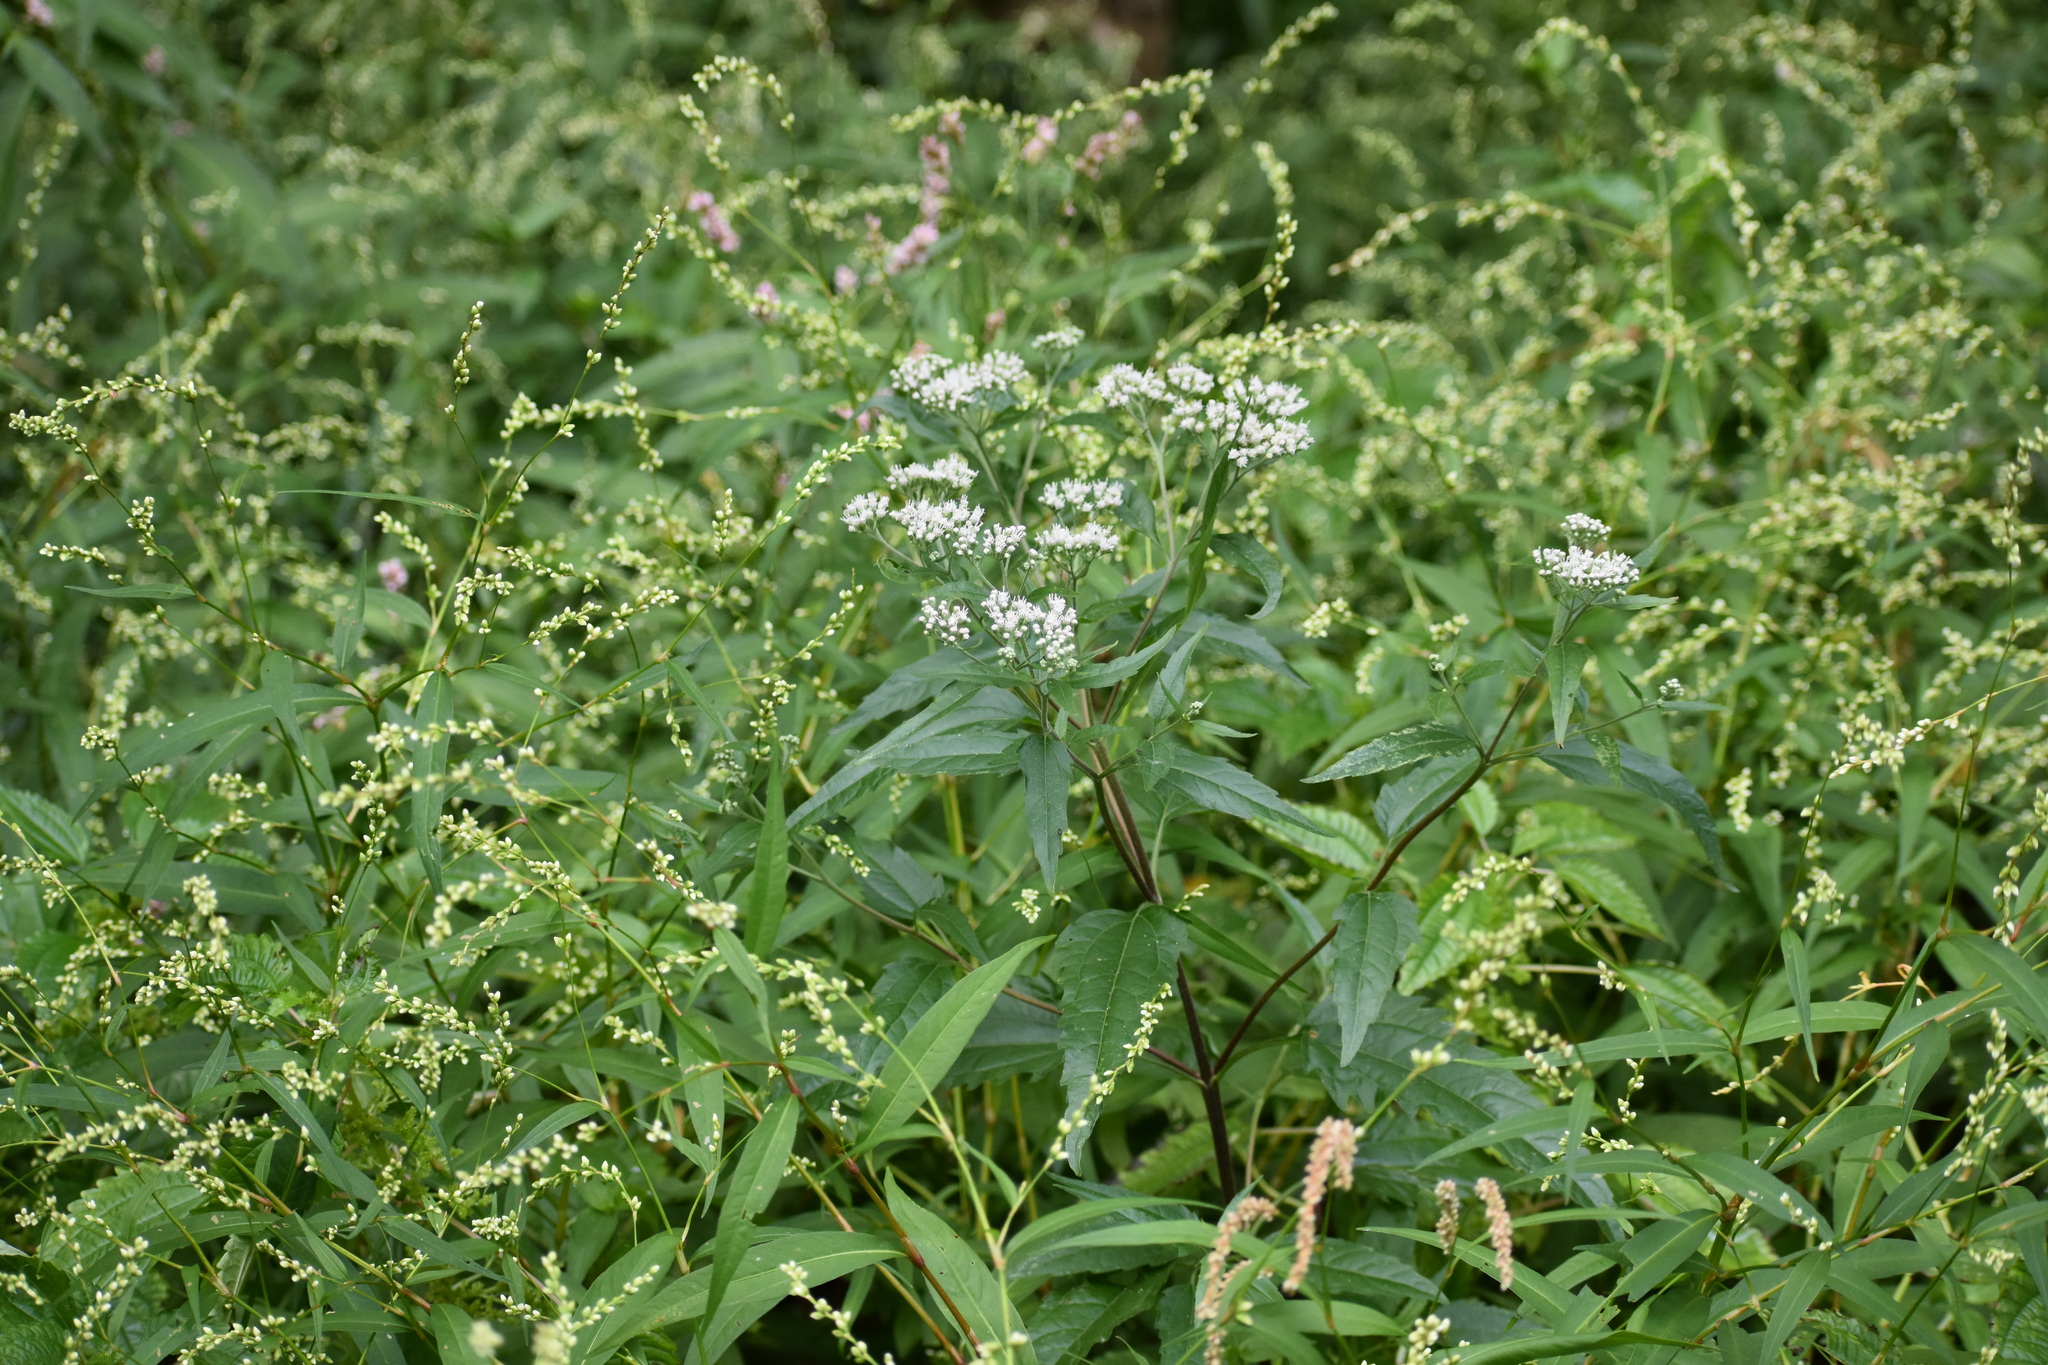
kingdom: Plantae
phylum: Tracheophyta
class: Magnoliopsida
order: Asterales
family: Asteraceae
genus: Eupatorium
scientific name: Eupatorium serotinum
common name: Late boneset
